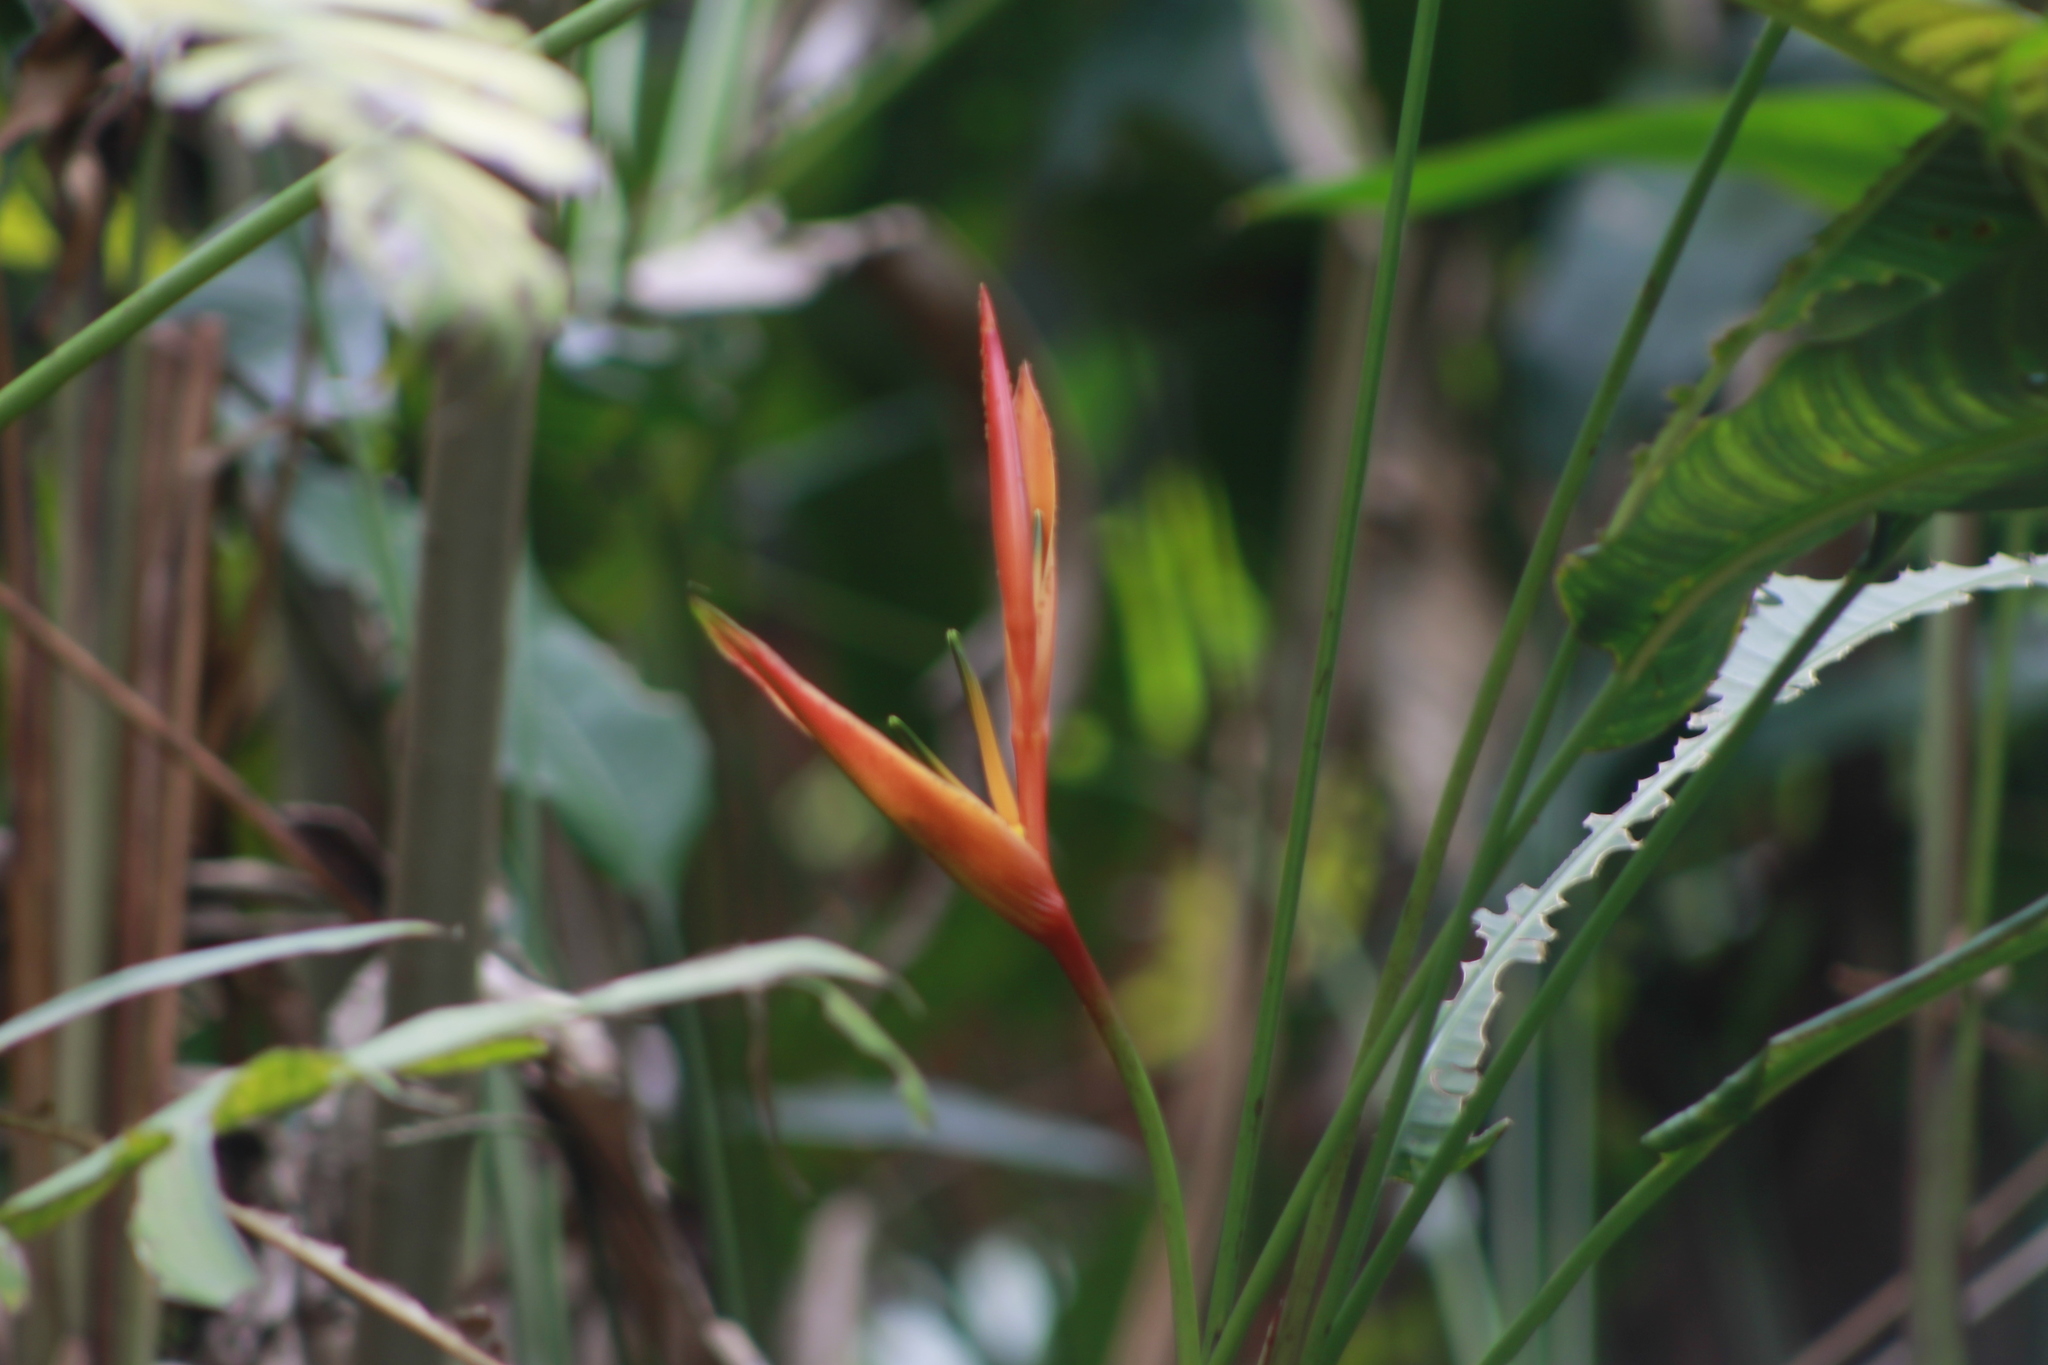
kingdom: Plantae
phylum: Tracheophyta
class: Liliopsida
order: Zingiberales
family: Heliconiaceae
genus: Heliconia
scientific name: Heliconia psittacorum
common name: Parrot's-flower
